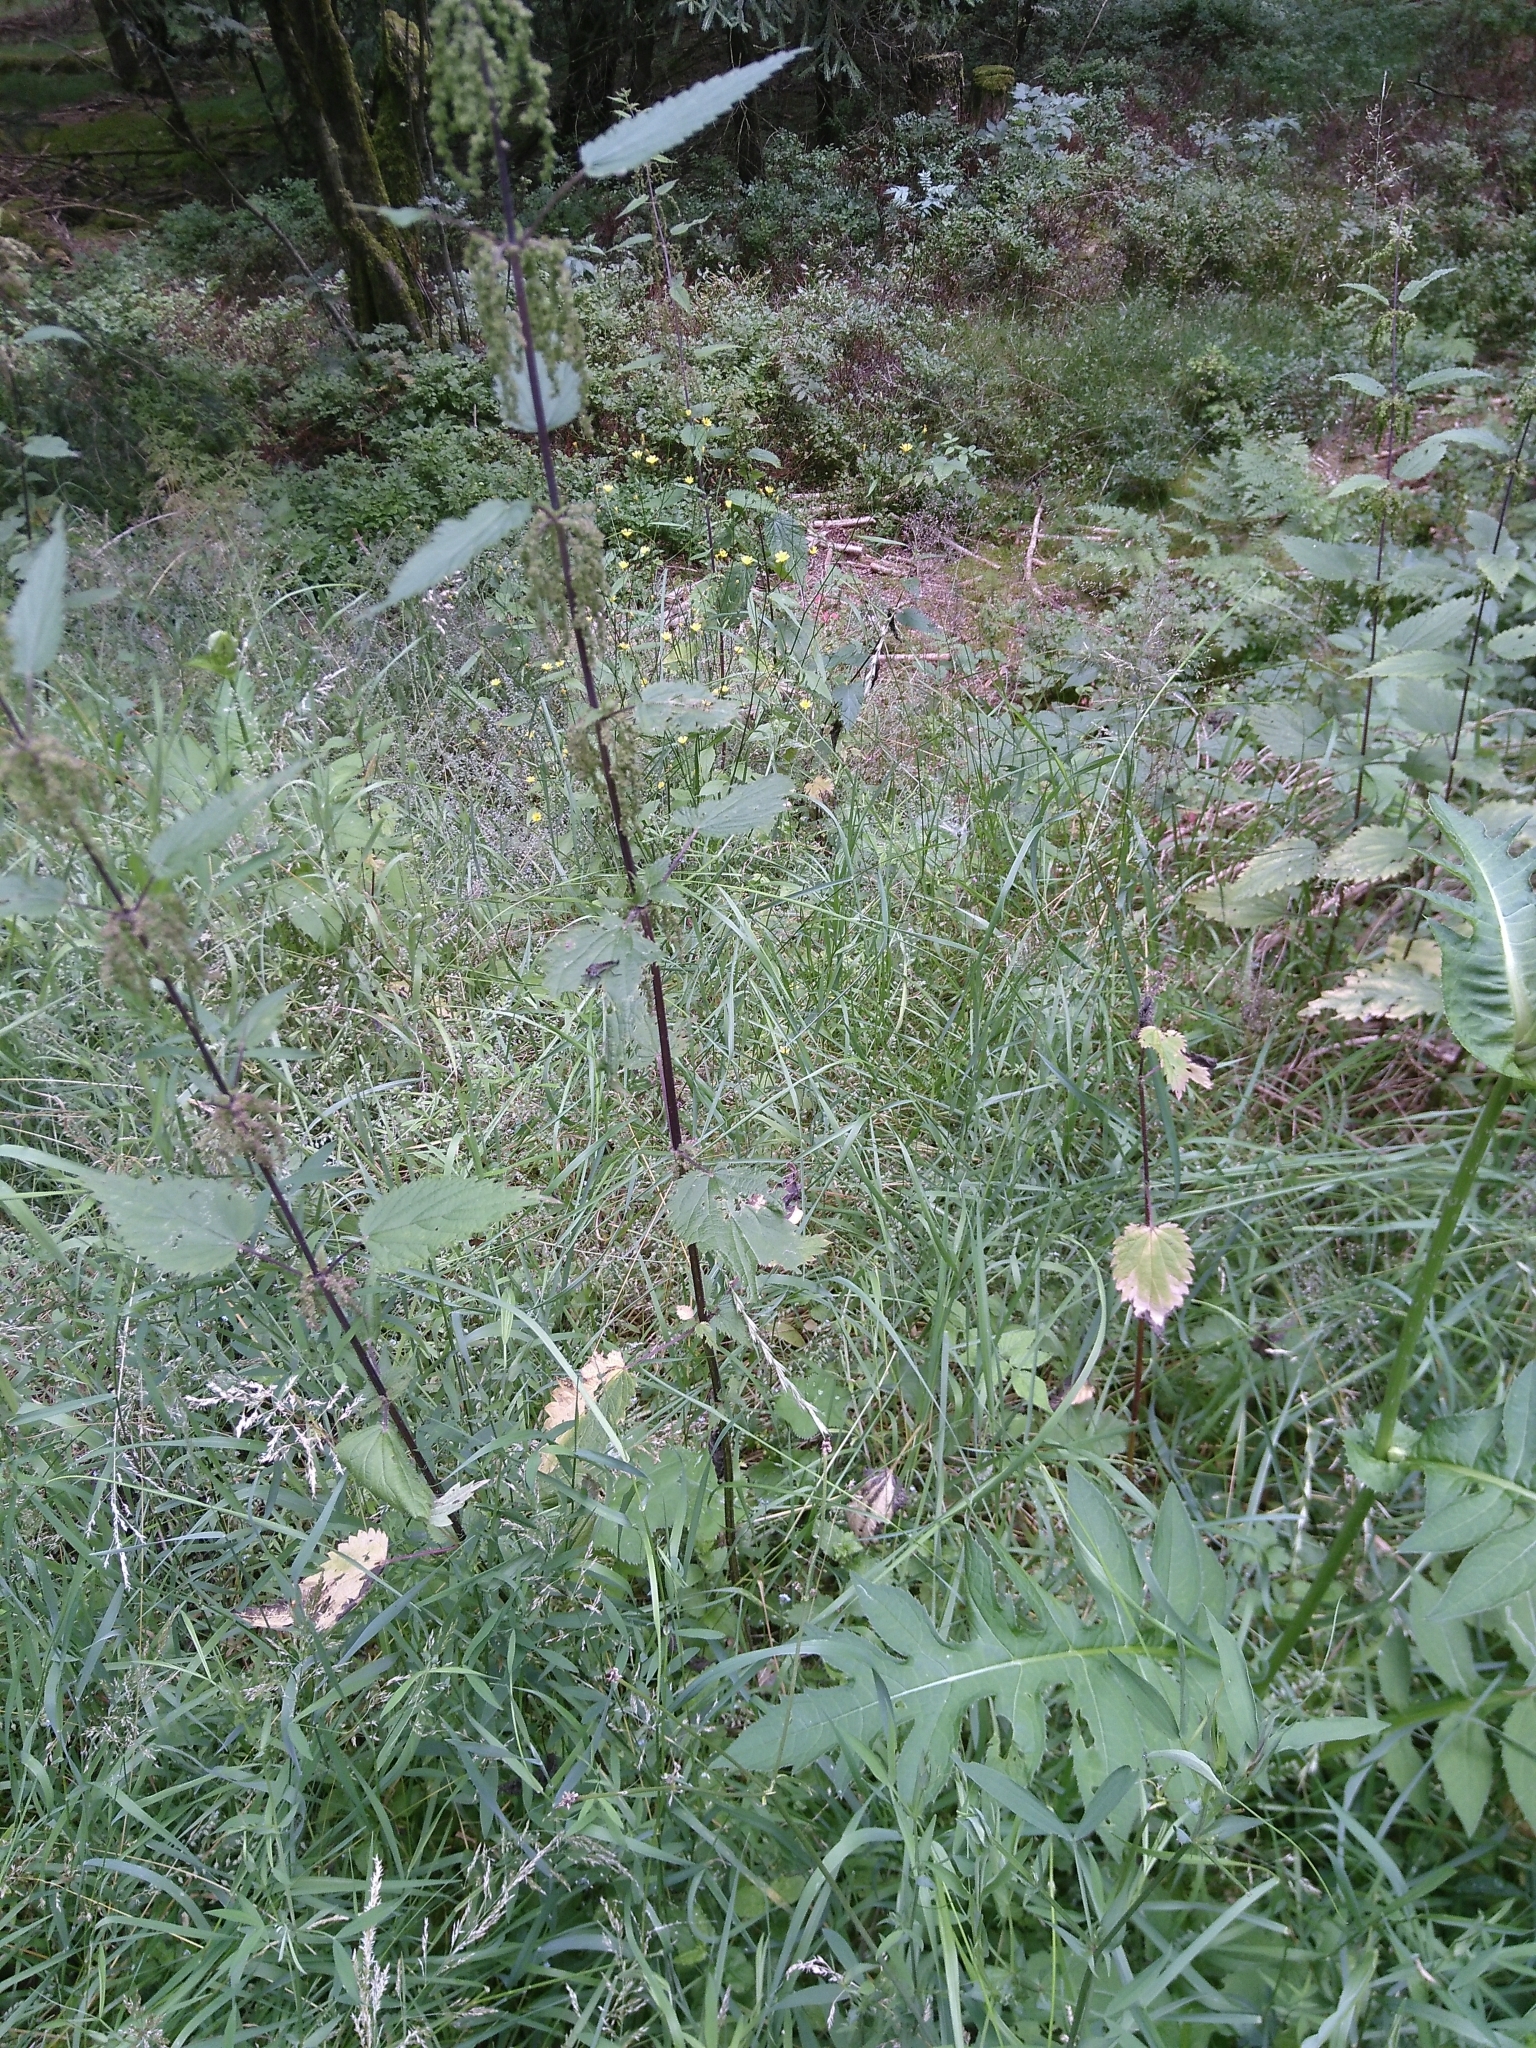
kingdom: Plantae
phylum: Tracheophyta
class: Magnoliopsida
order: Rosales
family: Urticaceae
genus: Urtica
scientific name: Urtica dioica
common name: Common nettle
